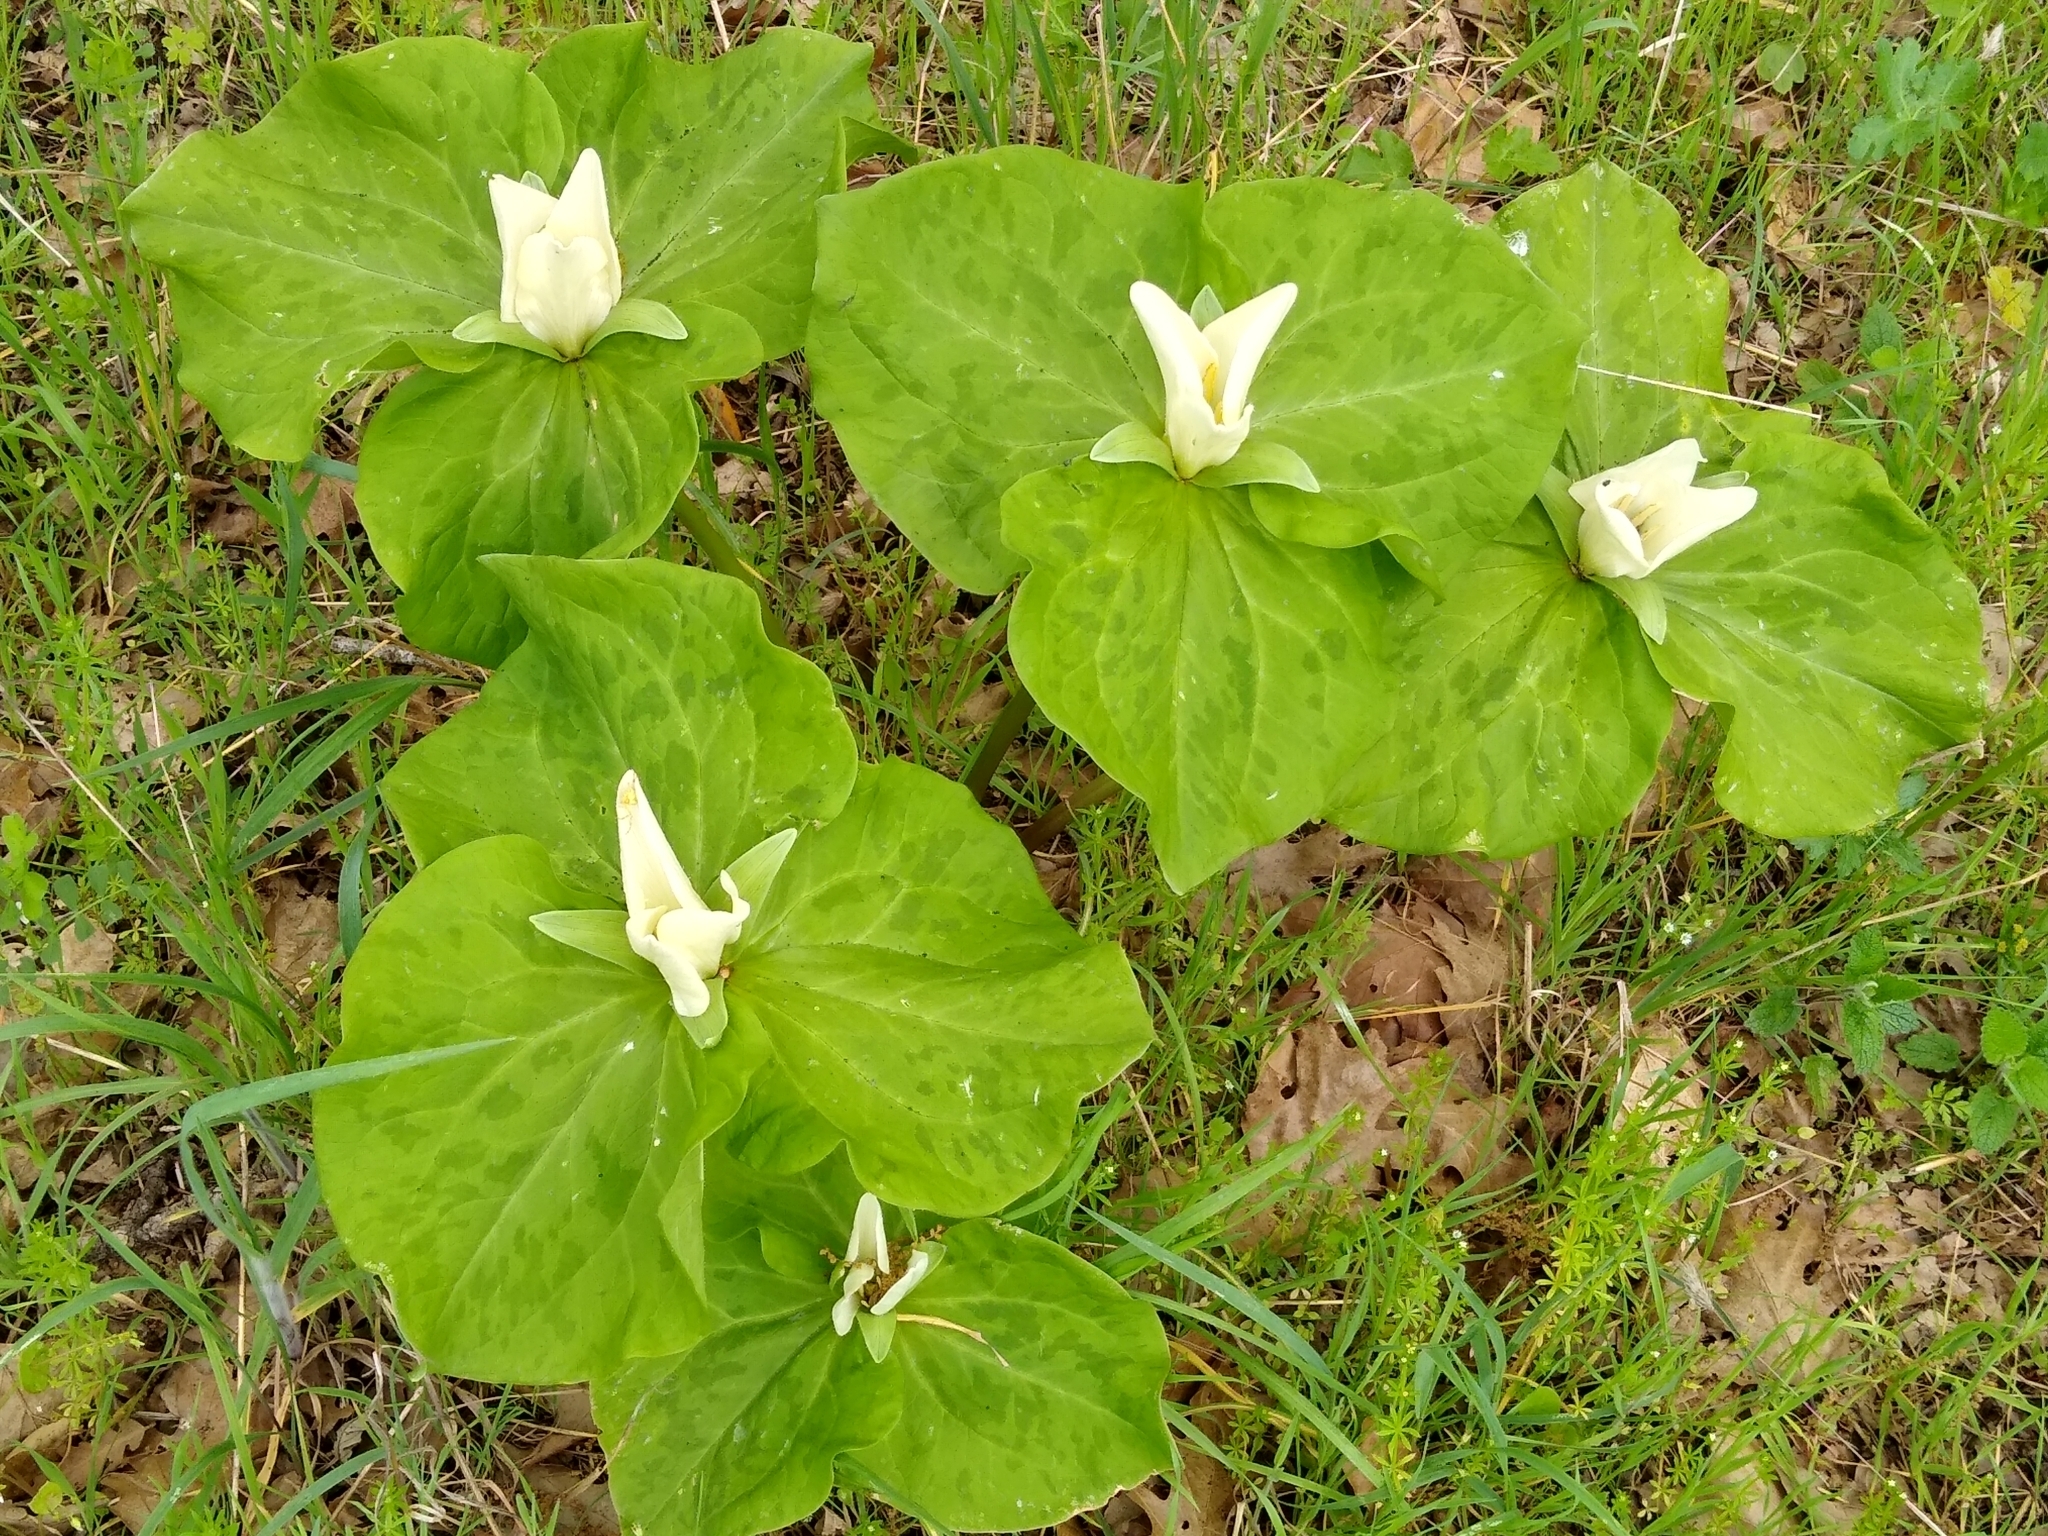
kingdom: Plantae
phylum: Tracheophyta
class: Liliopsida
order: Liliales
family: Melanthiaceae
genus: Trillium
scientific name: Trillium albidum
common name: Freeman's trillium
